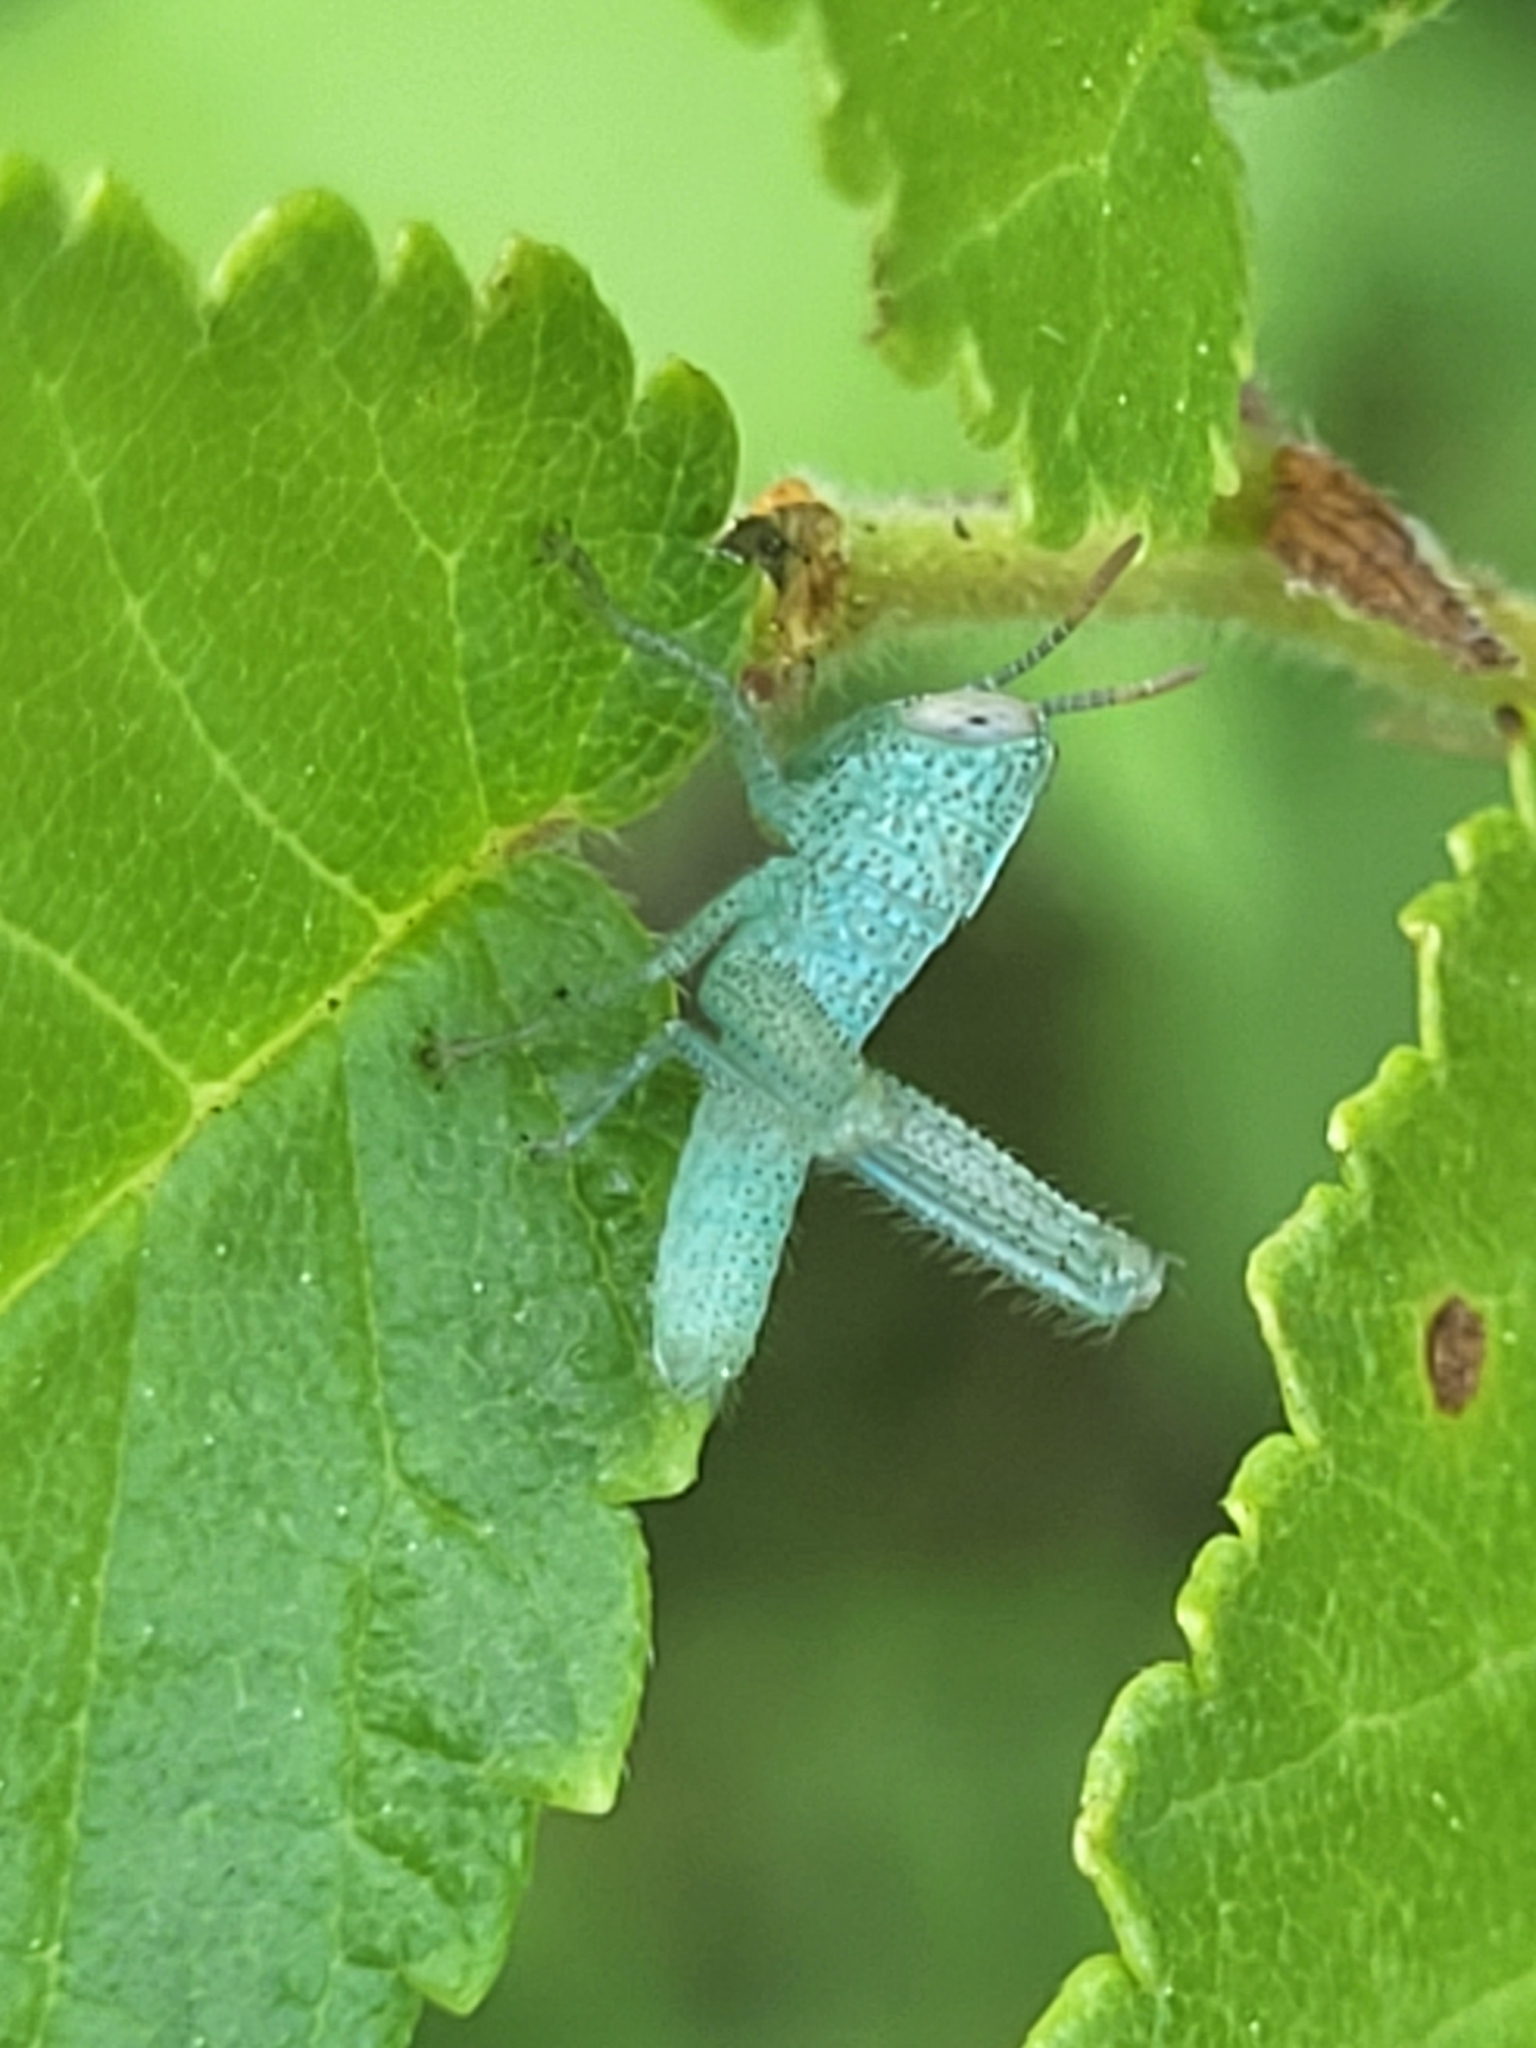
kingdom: Animalia
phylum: Arthropoda
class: Insecta
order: Orthoptera
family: Acrididae
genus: Anacridium
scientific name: Anacridium aegyptium
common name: Egyptian grasshopper
